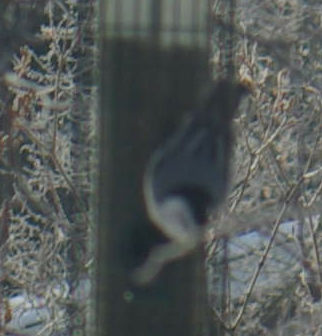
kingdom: Animalia
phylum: Chordata
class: Aves
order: Passeriformes
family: Sittidae
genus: Sitta
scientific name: Sitta carolinensis
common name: White-breasted nuthatch
